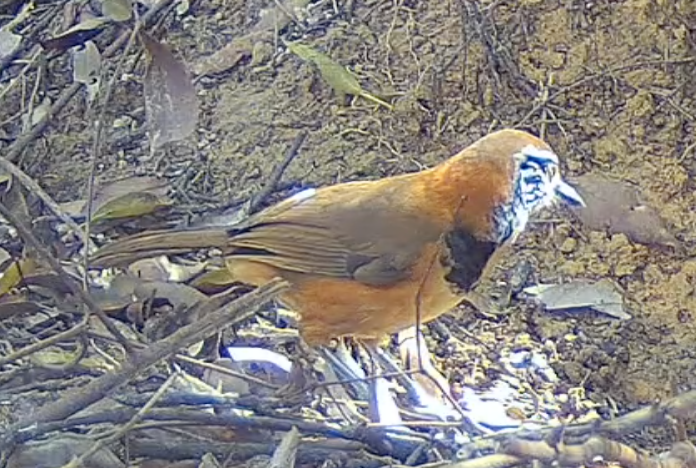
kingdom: Animalia
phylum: Chordata
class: Aves
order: Passeriformes
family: Leiothrichidae
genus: Garrulax
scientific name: Garrulax pectoralis
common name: Greater necklaced laughingthrush
